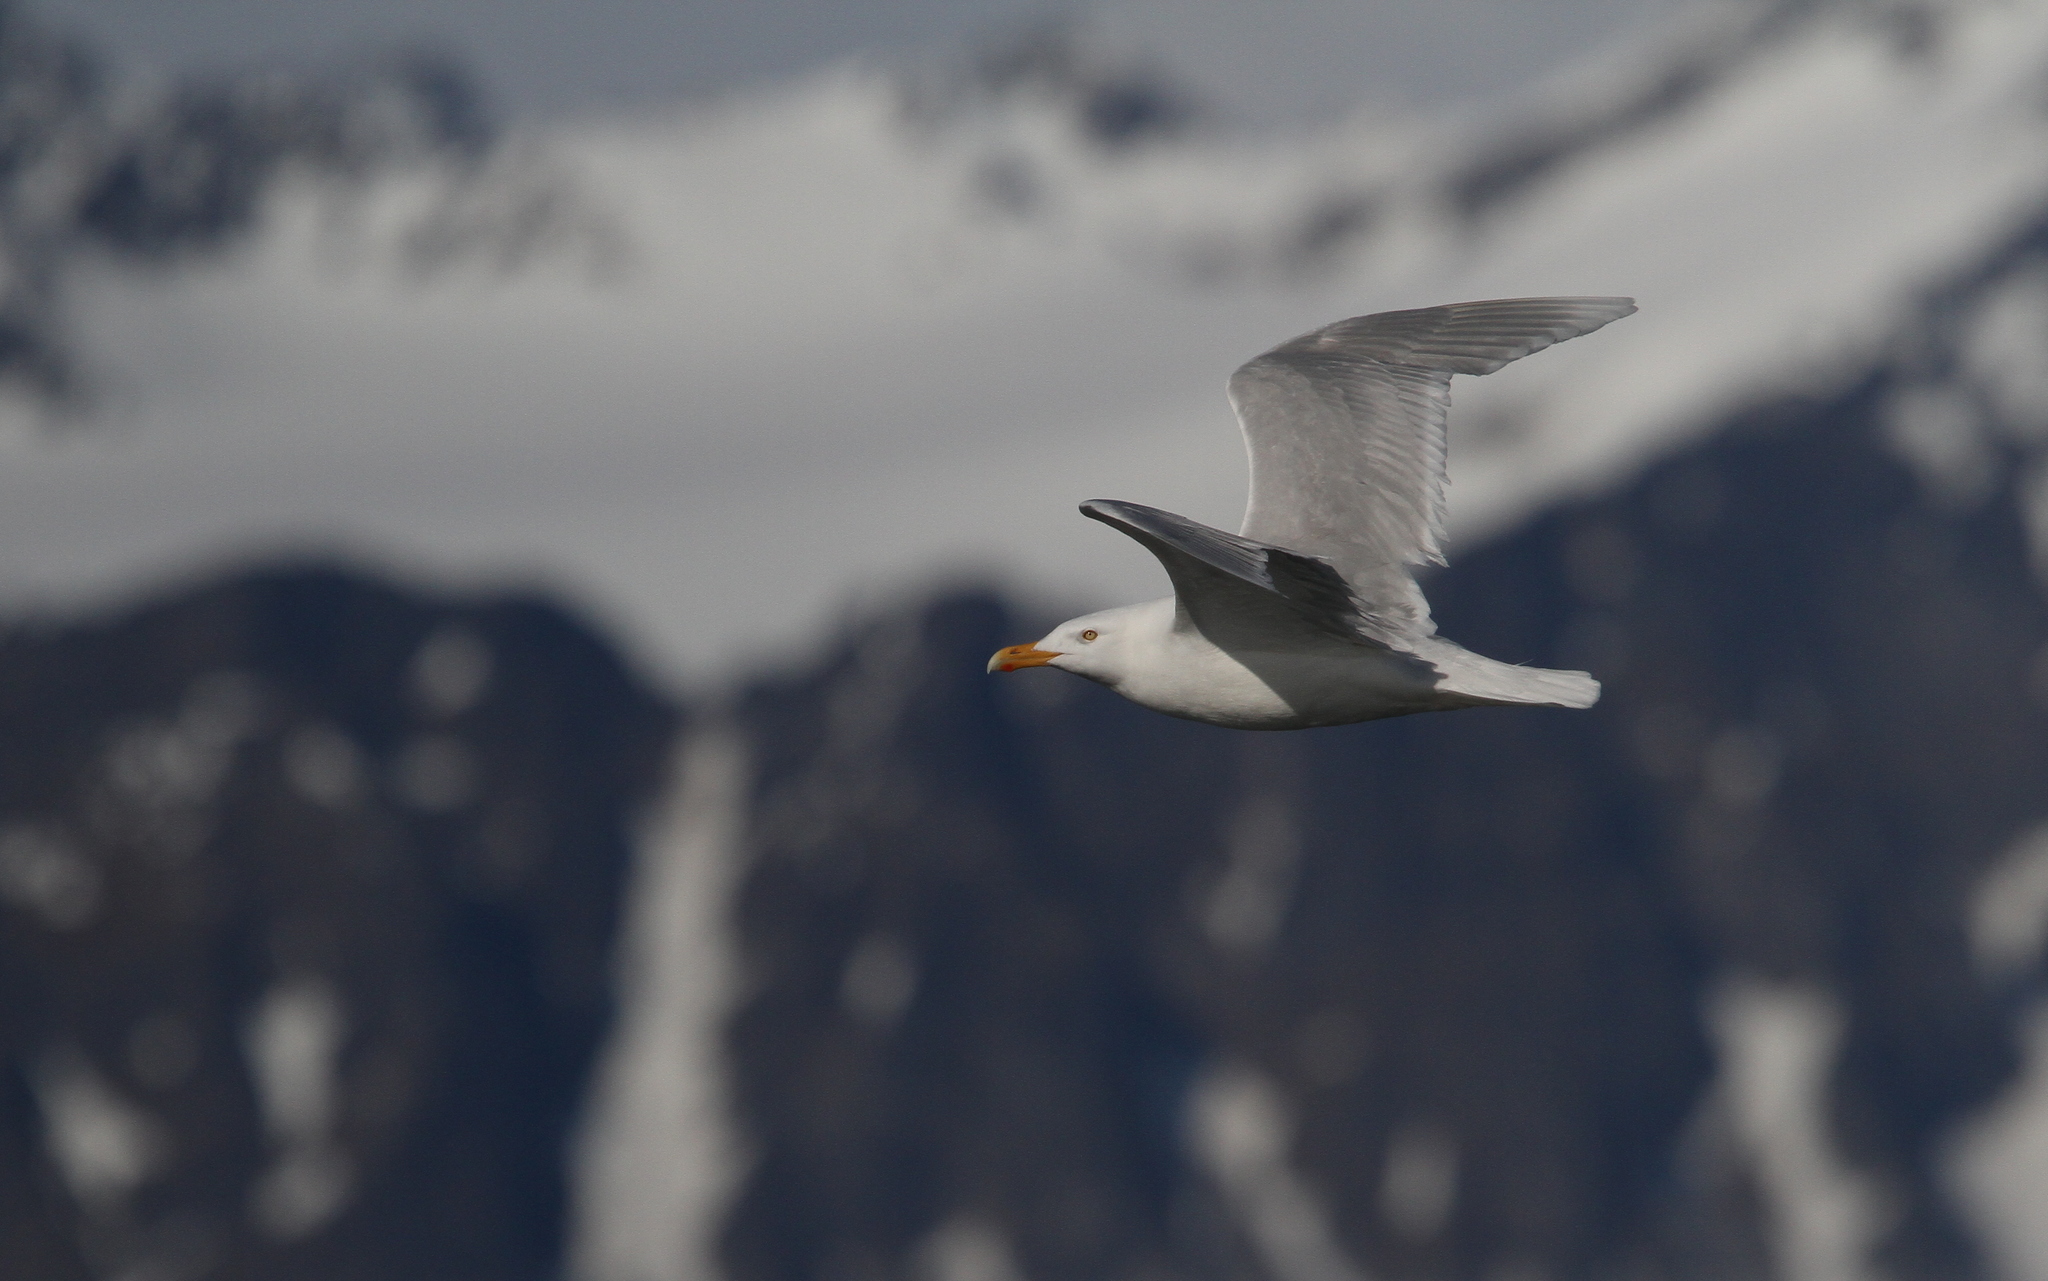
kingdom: Animalia
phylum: Chordata
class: Aves
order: Charadriiformes
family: Laridae
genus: Larus
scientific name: Larus hyperboreus
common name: Glaucous gull
